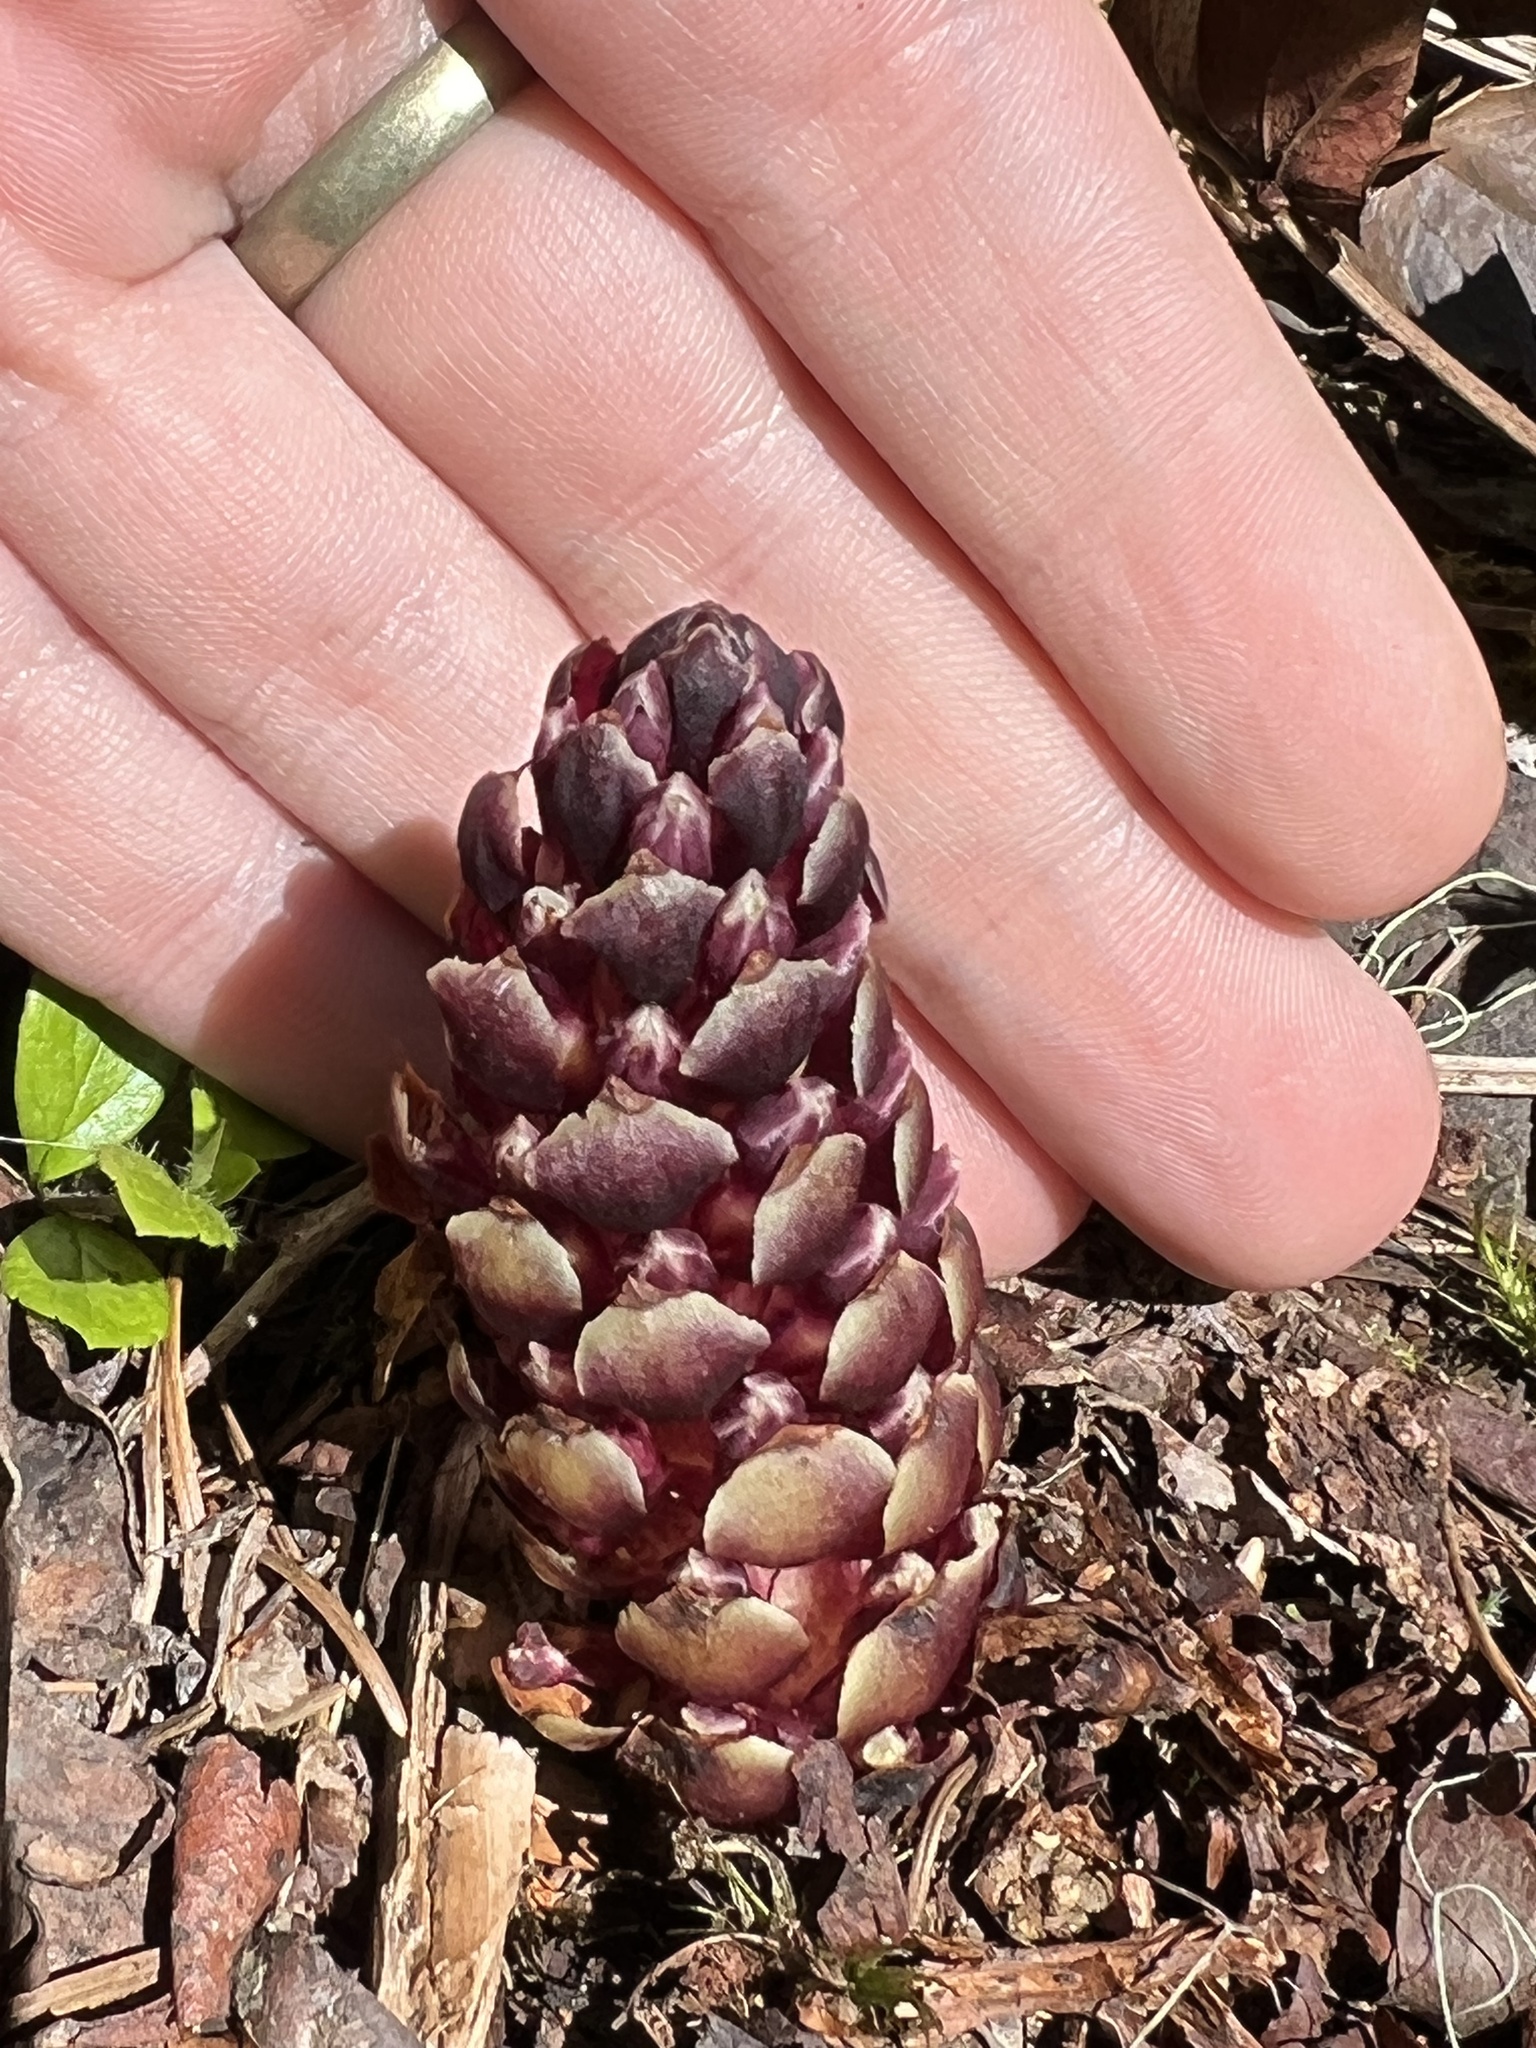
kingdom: Plantae
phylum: Tracheophyta
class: Magnoliopsida
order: Lamiales
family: Orobanchaceae
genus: Kopsiopsis
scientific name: Kopsiopsis hookeri
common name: Hooker's groundcone
